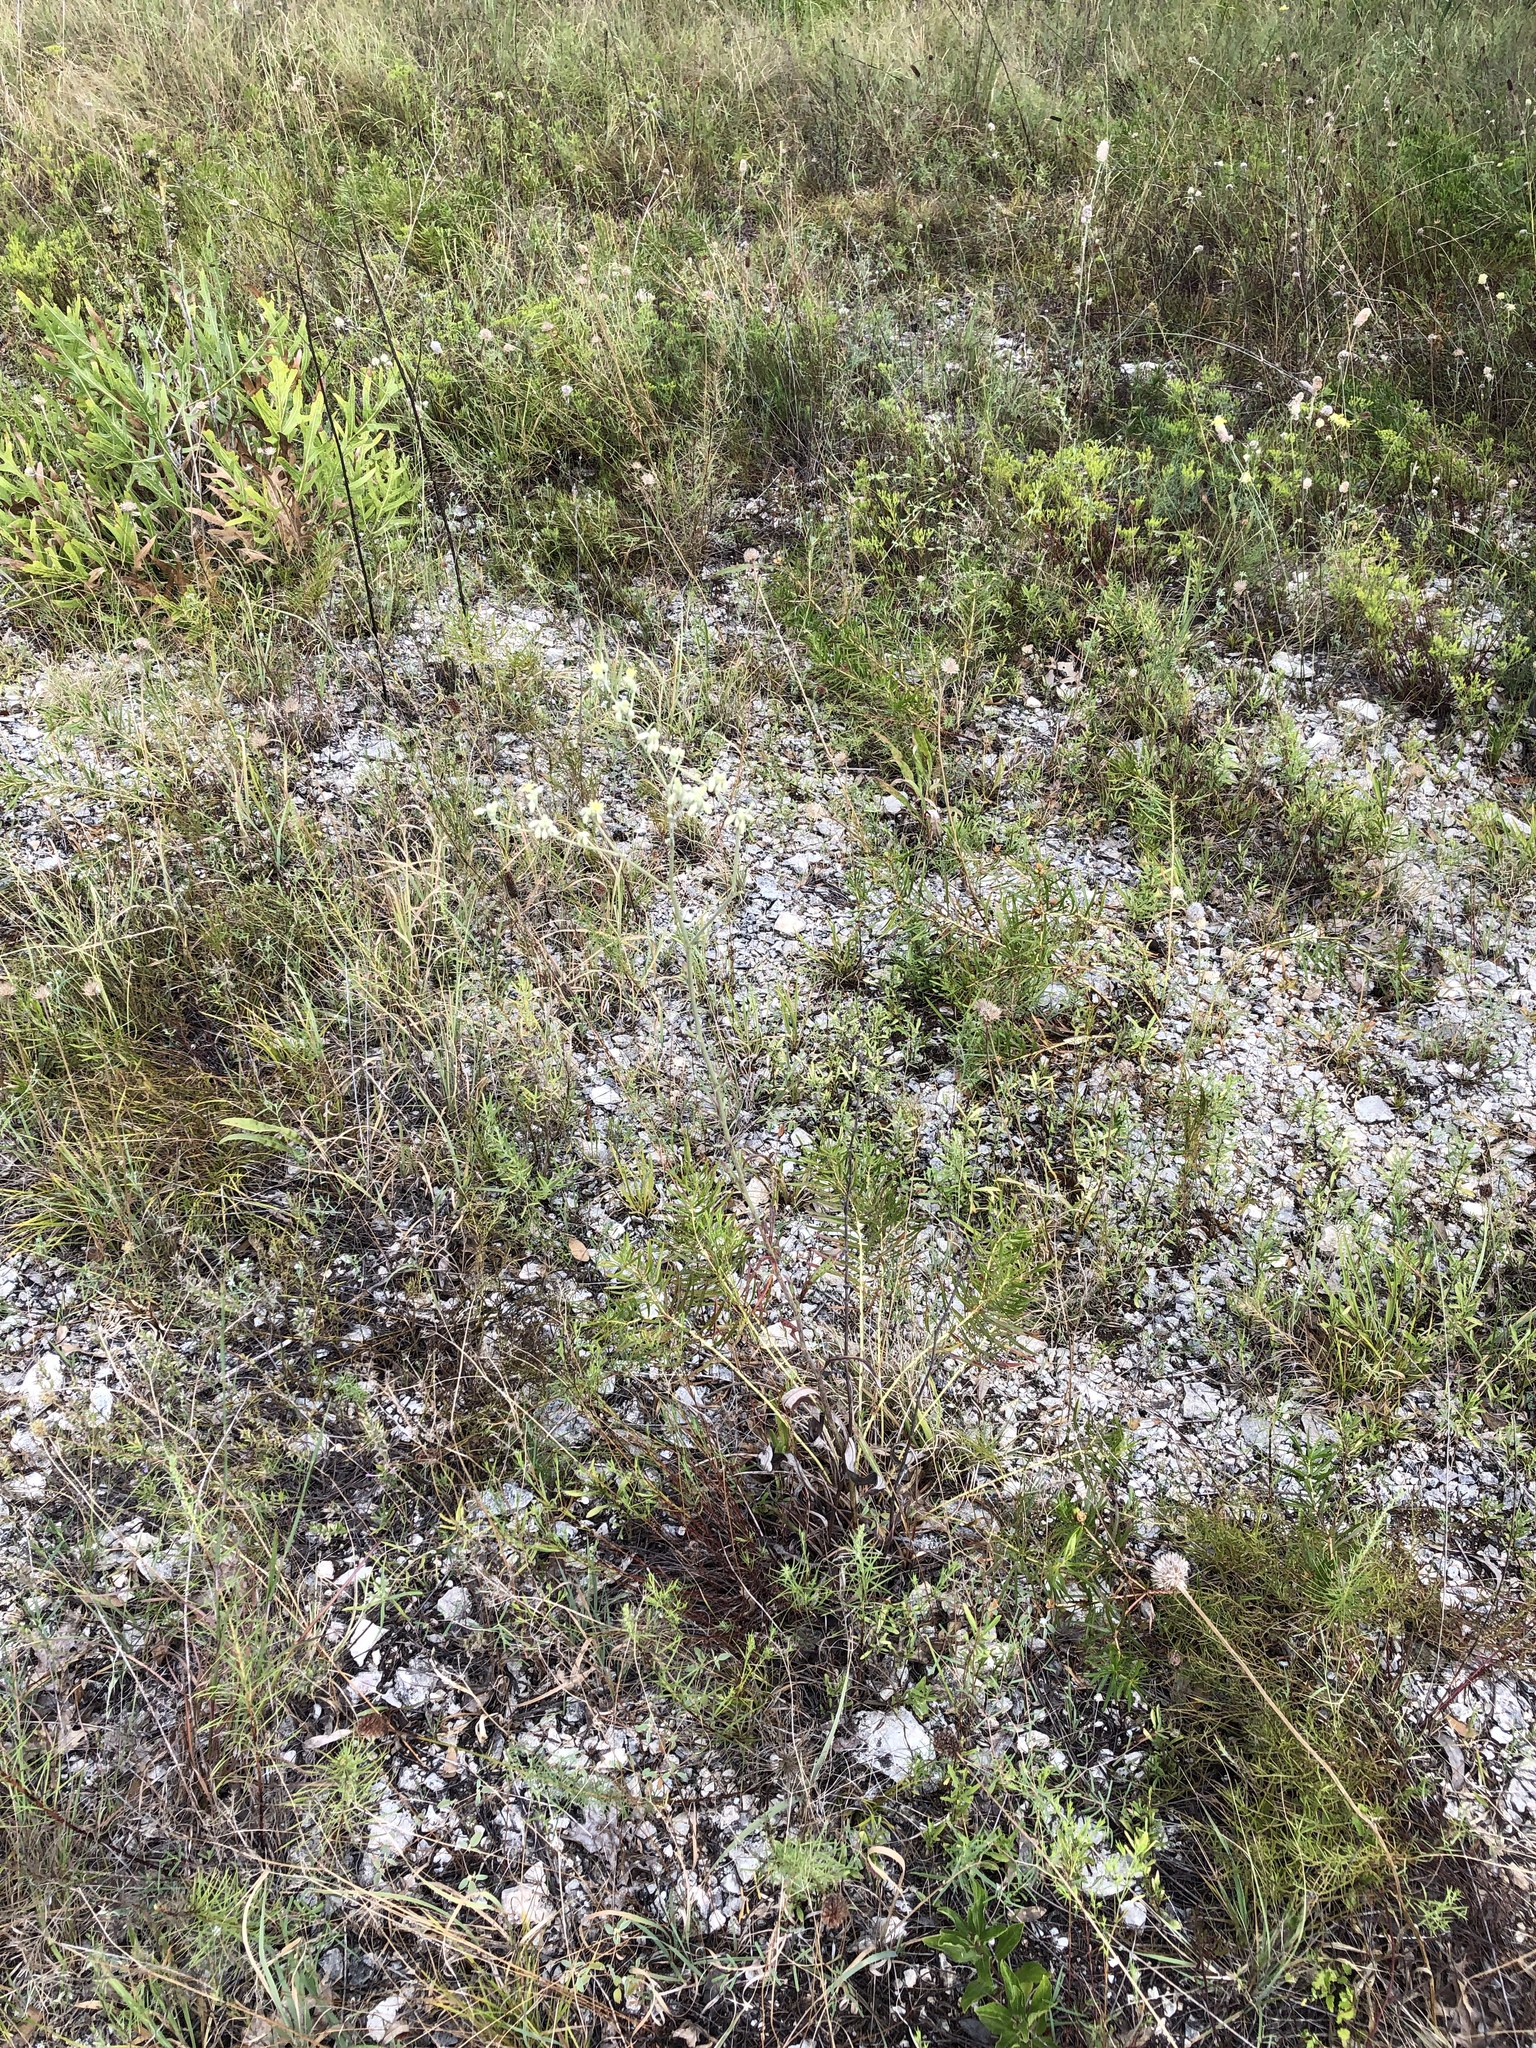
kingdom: Plantae
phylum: Tracheophyta
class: Magnoliopsida
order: Caryophyllales
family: Polygonaceae
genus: Eriogonum
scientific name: Eriogonum longifolium
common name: Longleaf wild buckwheat
